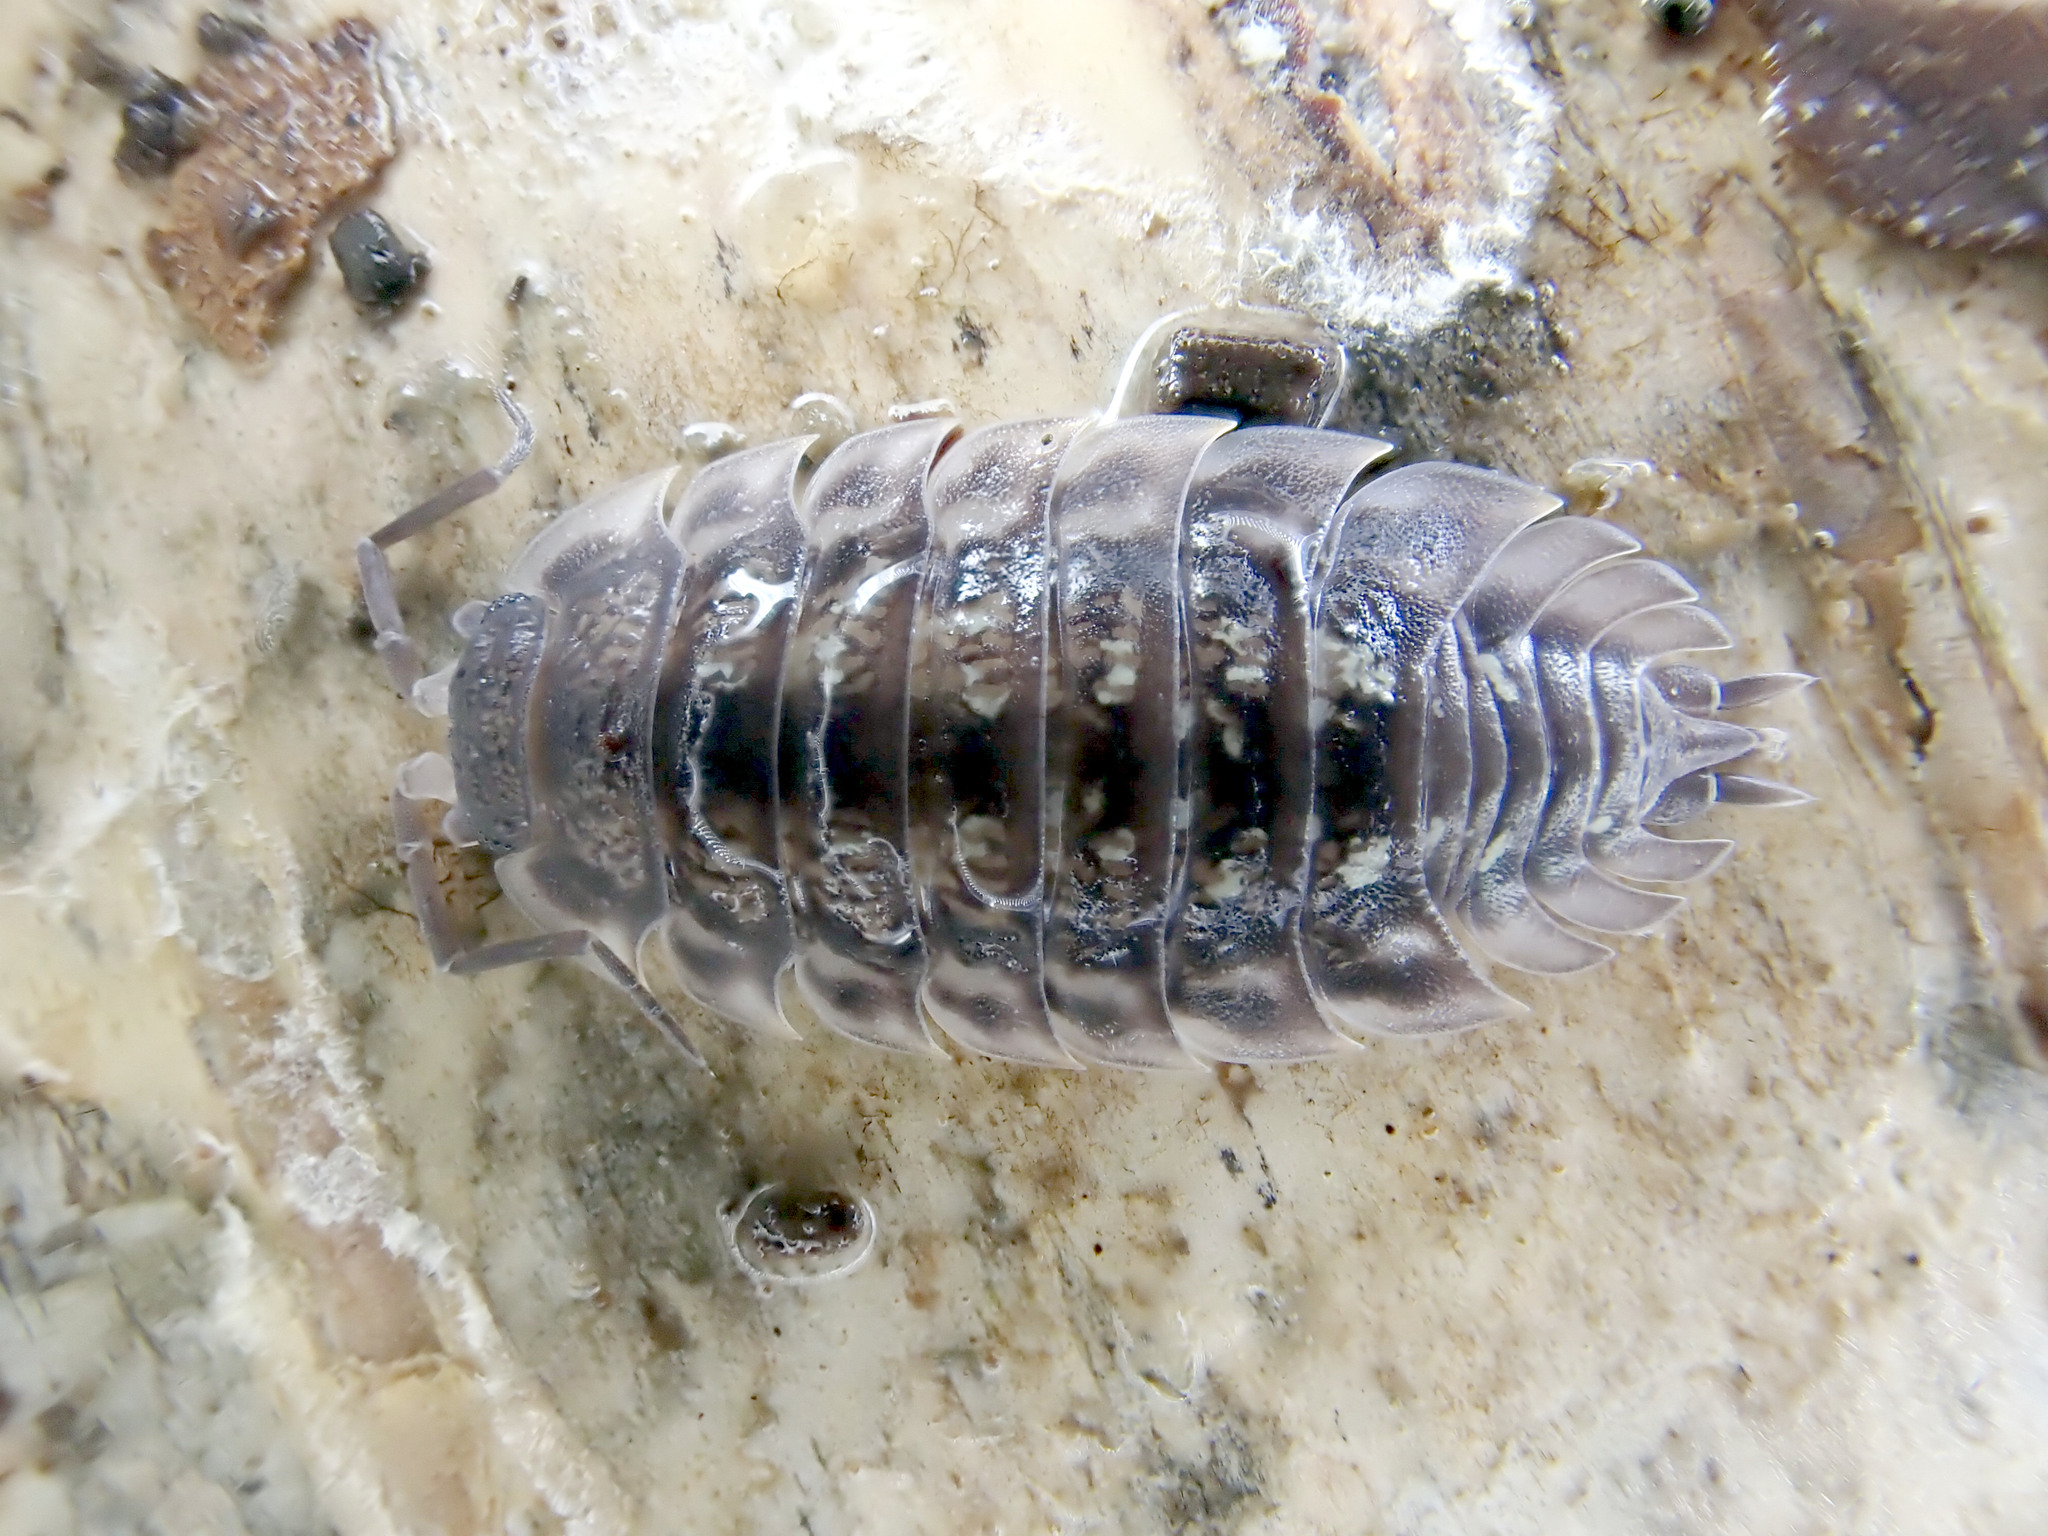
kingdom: Animalia
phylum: Arthropoda
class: Malacostraca
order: Isopoda
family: Oniscidae
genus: Oniscus
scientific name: Oniscus asellus
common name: Common shiny woodlouse
